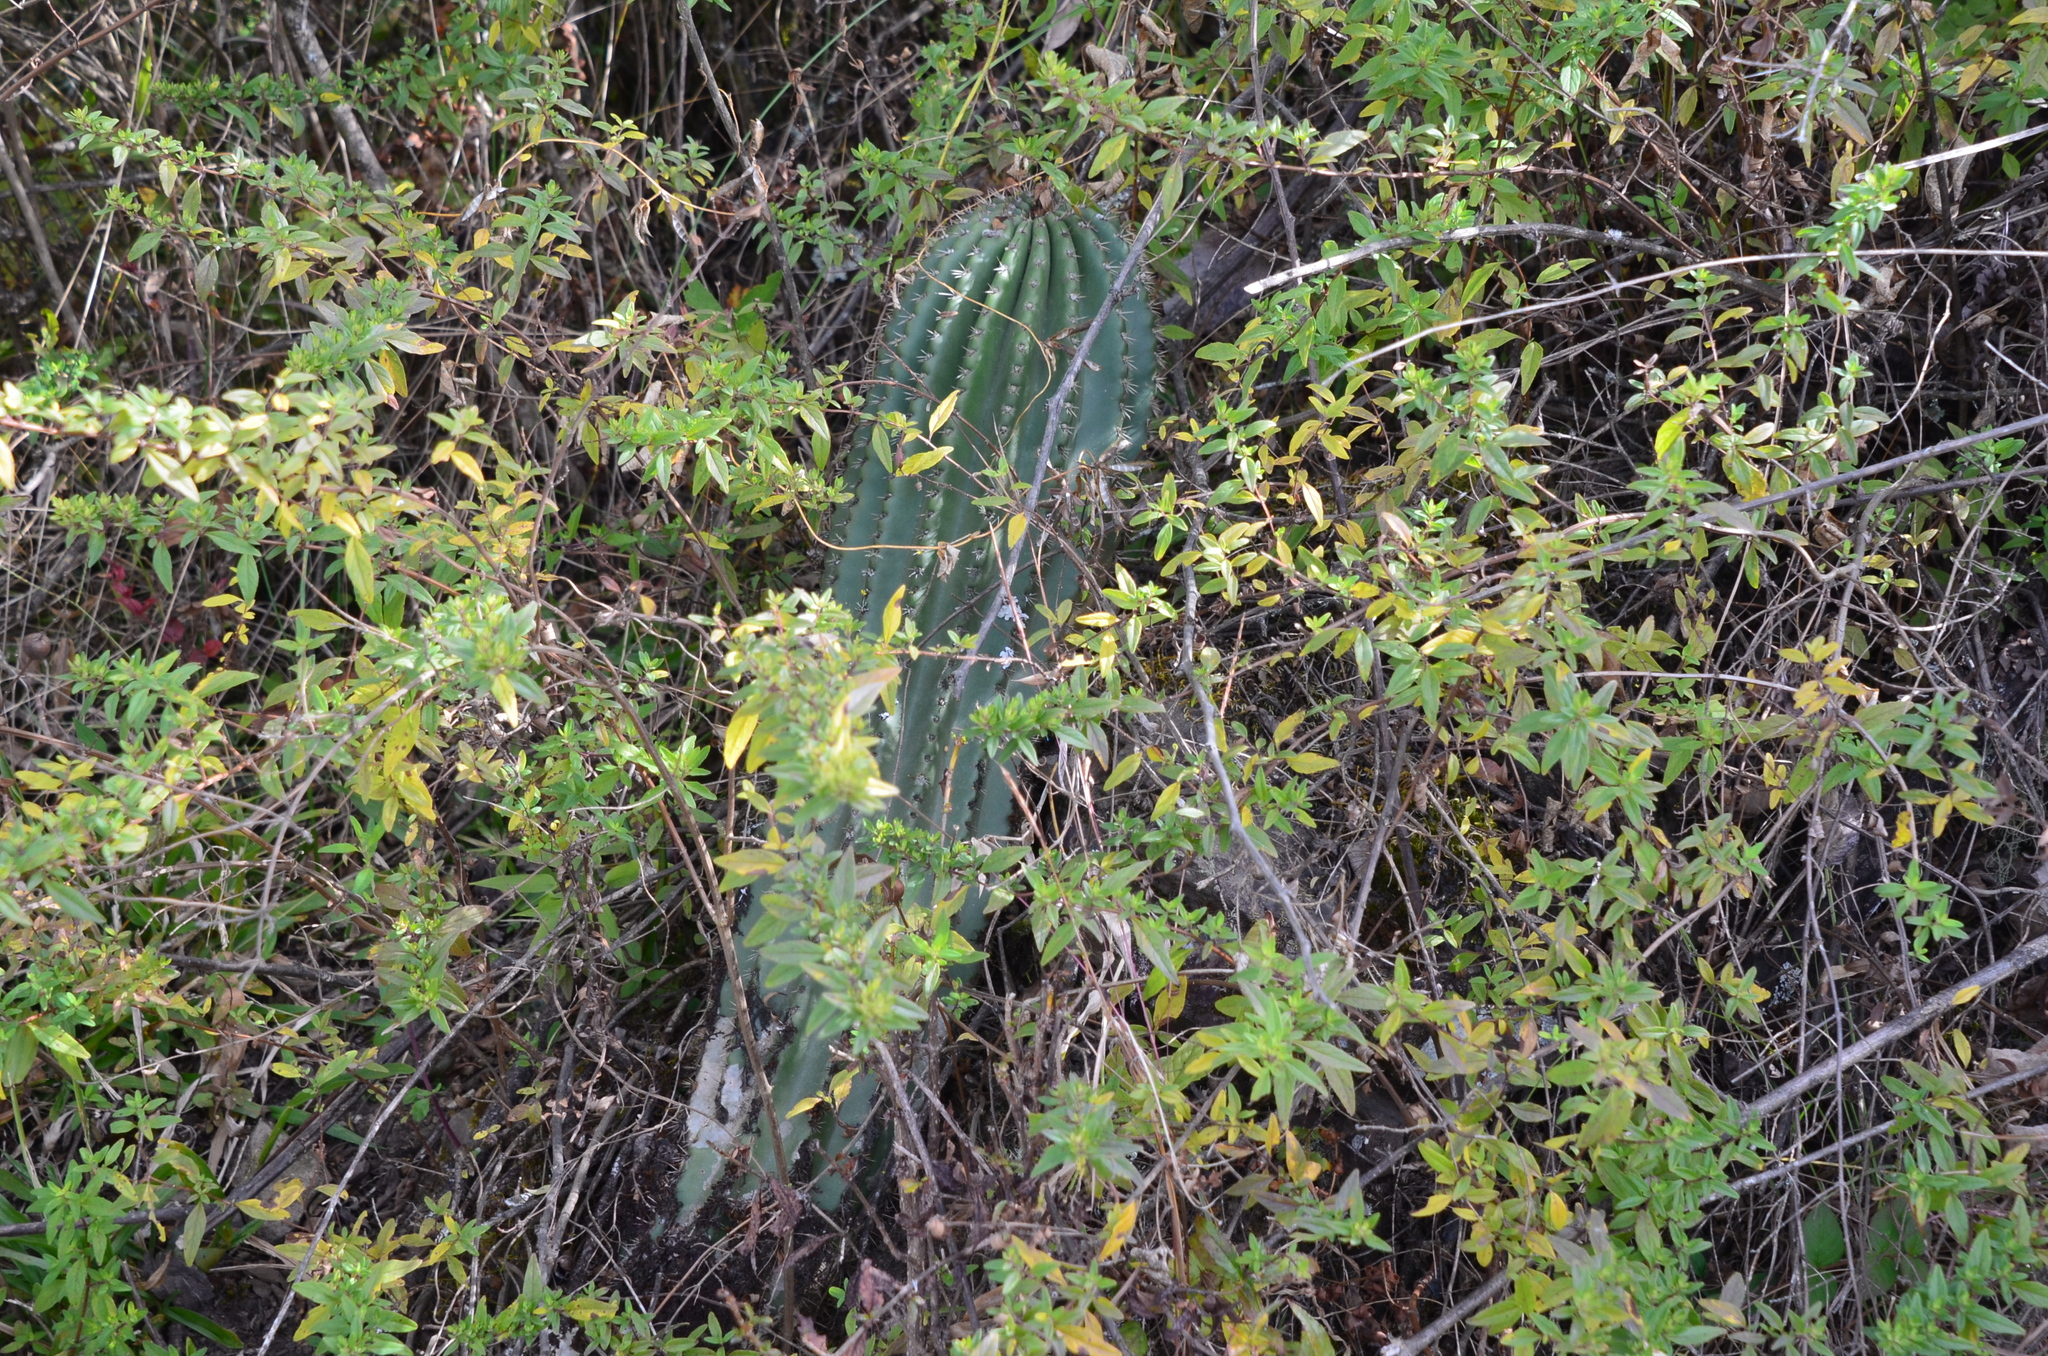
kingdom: Plantae
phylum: Tracheophyta
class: Magnoliopsida
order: Caryophyllales
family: Cactaceae
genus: Soehrensia
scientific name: Soehrensia schickendantzii
